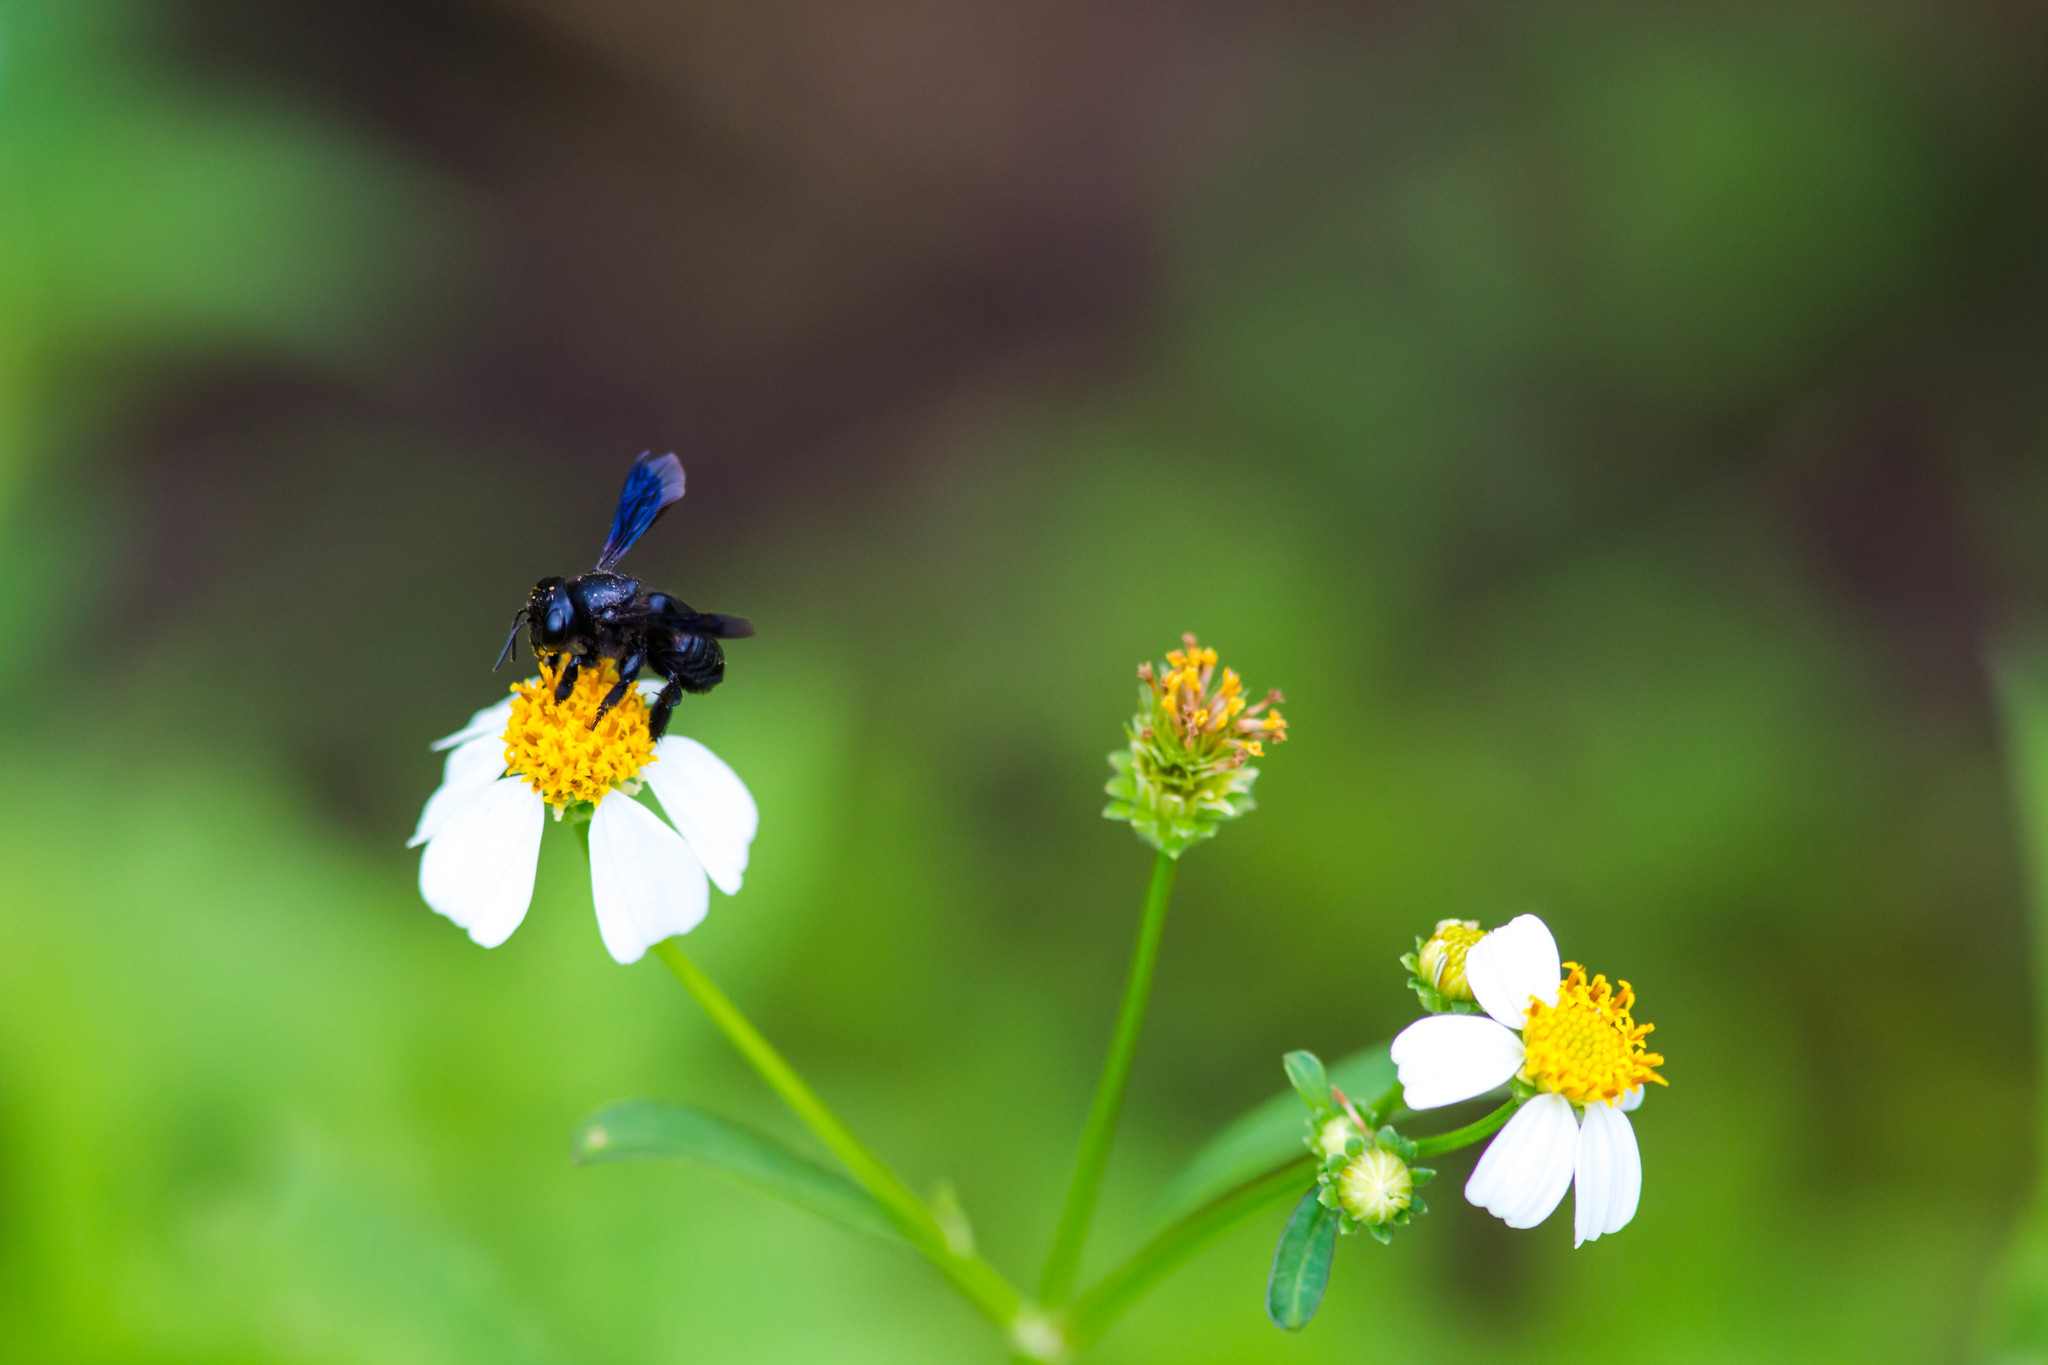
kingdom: Animalia
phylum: Arthropoda
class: Insecta
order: Hymenoptera
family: Megachilidae
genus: Megachile
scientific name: Megachile xylocopoides
